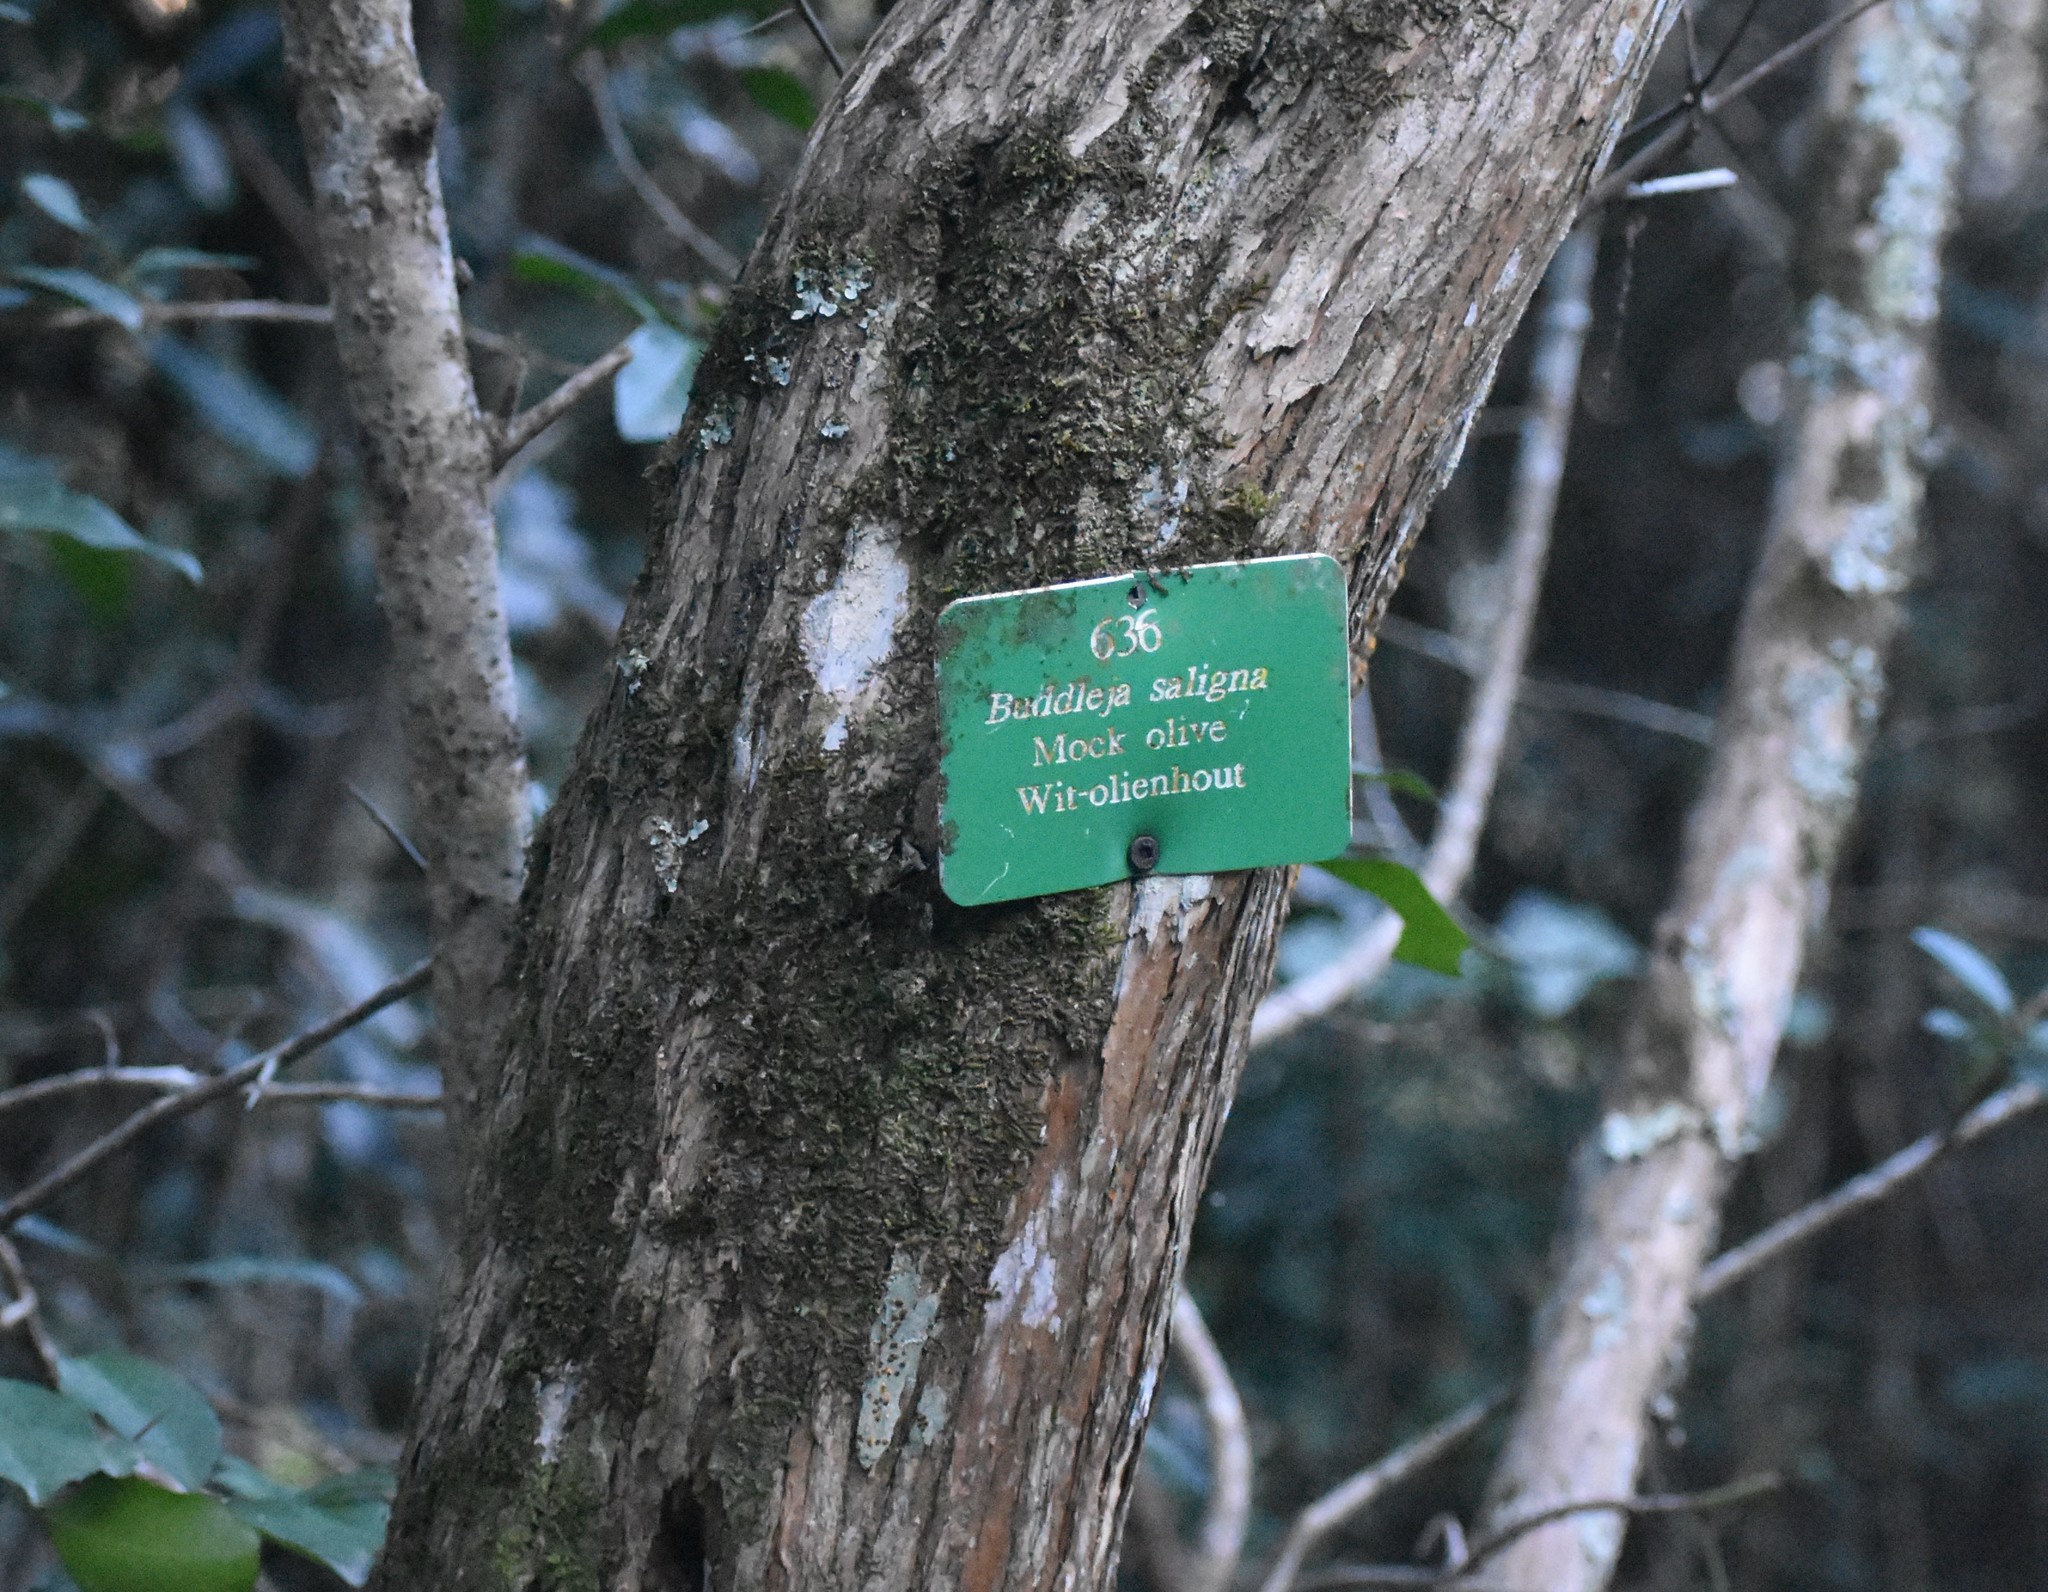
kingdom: Plantae
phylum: Tracheophyta
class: Magnoliopsida
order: Lamiales
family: Scrophulariaceae
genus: Buddleja
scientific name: Buddleja saligna
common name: False olive
